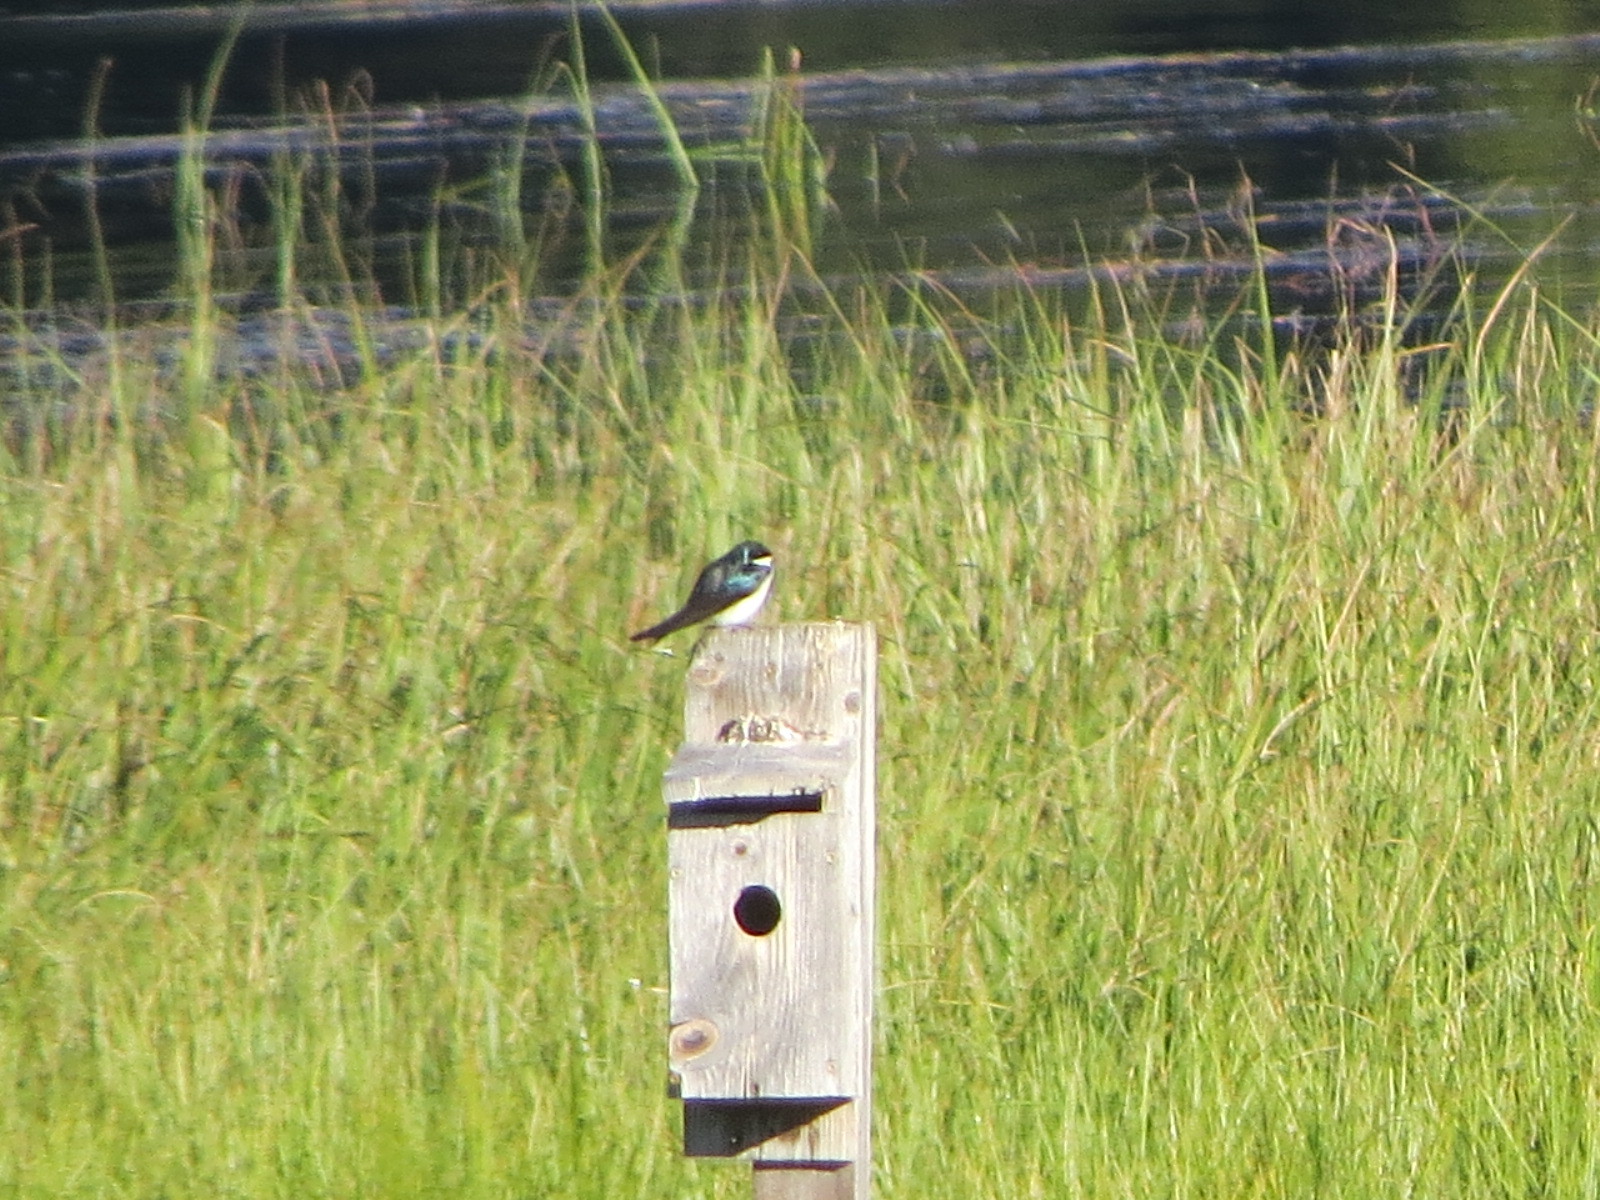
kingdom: Animalia
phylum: Chordata
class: Aves
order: Passeriformes
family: Hirundinidae
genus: Tachycineta
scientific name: Tachycineta bicolor
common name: Tree swallow
